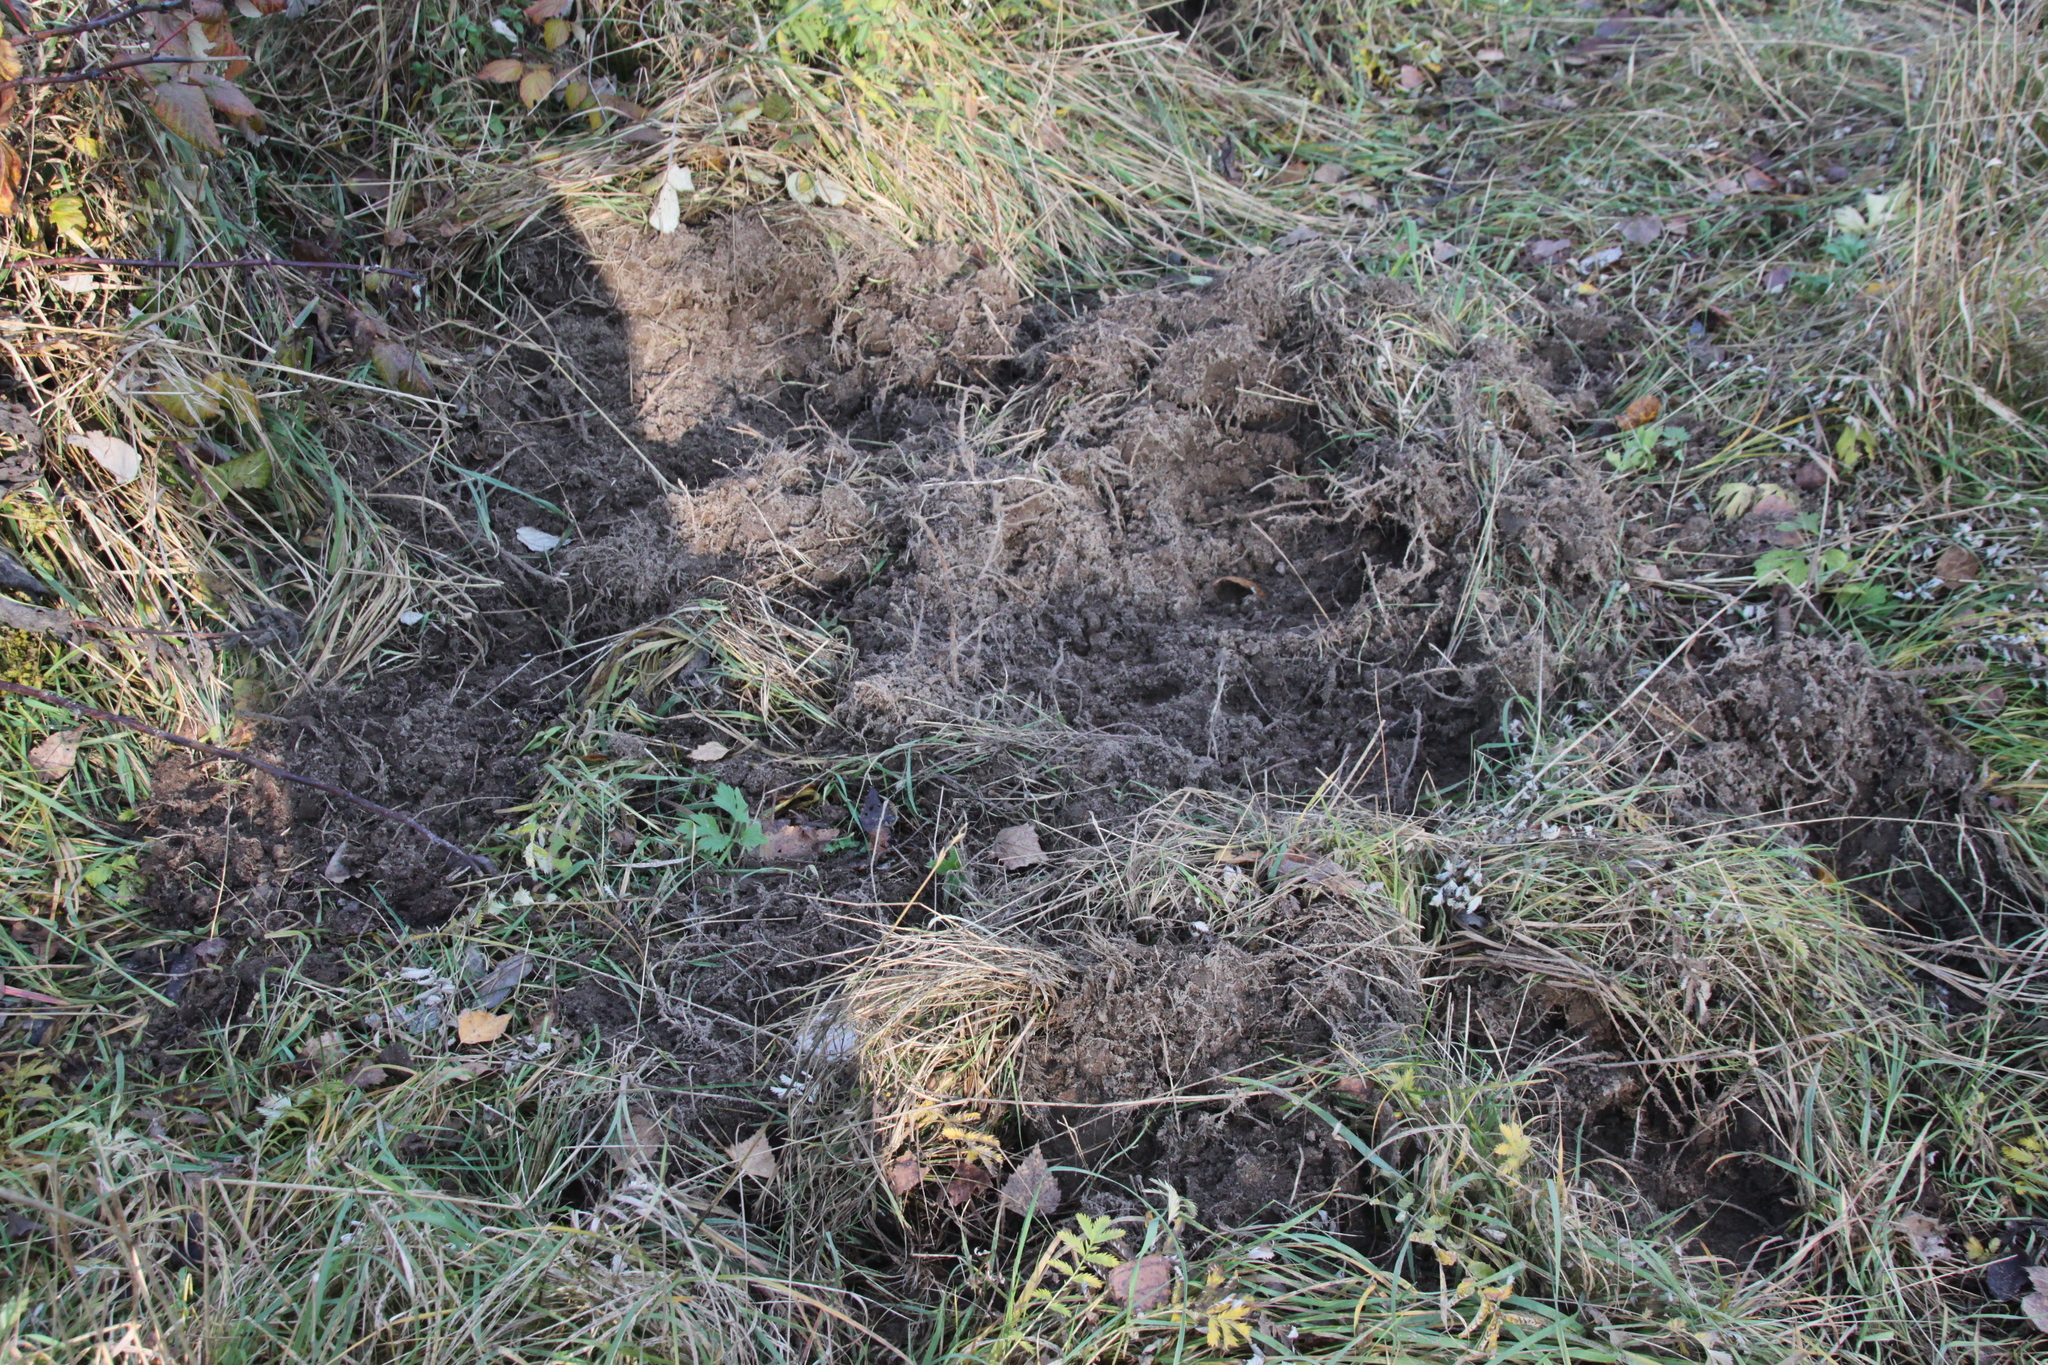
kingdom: Animalia
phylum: Chordata
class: Mammalia
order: Artiodactyla
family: Suidae
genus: Sus
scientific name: Sus scrofa
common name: Wild boar
